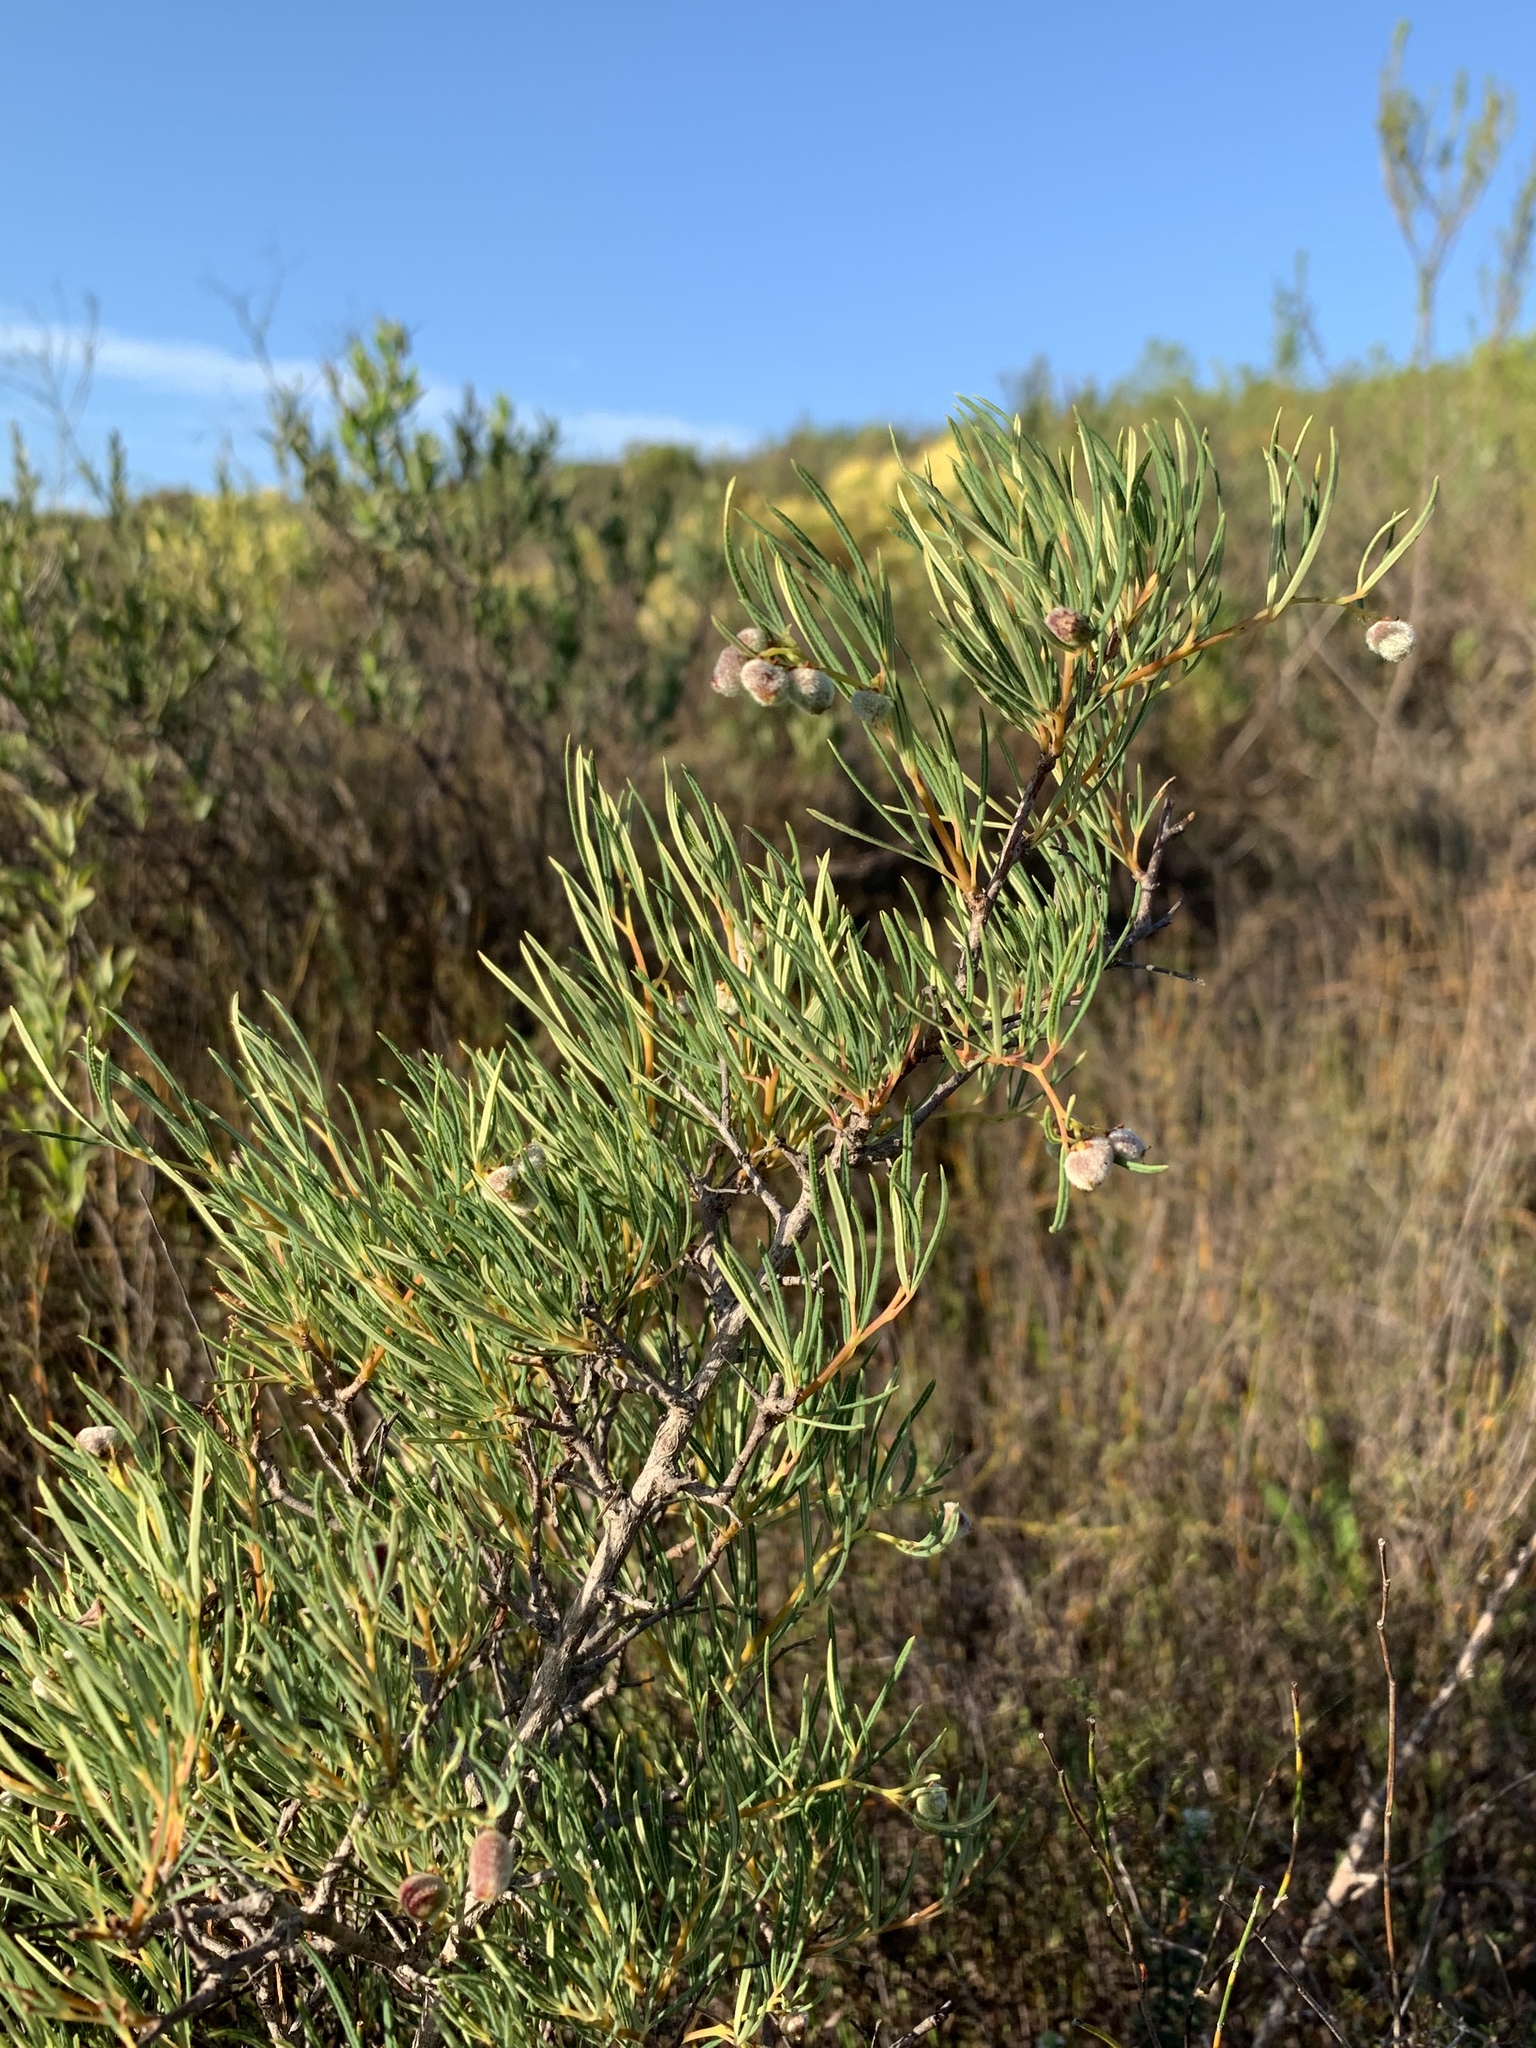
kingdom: Plantae
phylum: Tracheophyta
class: Magnoliopsida
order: Sapindales
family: Anacardiaceae
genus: Searsia
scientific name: Searsia rosmarinifolia
